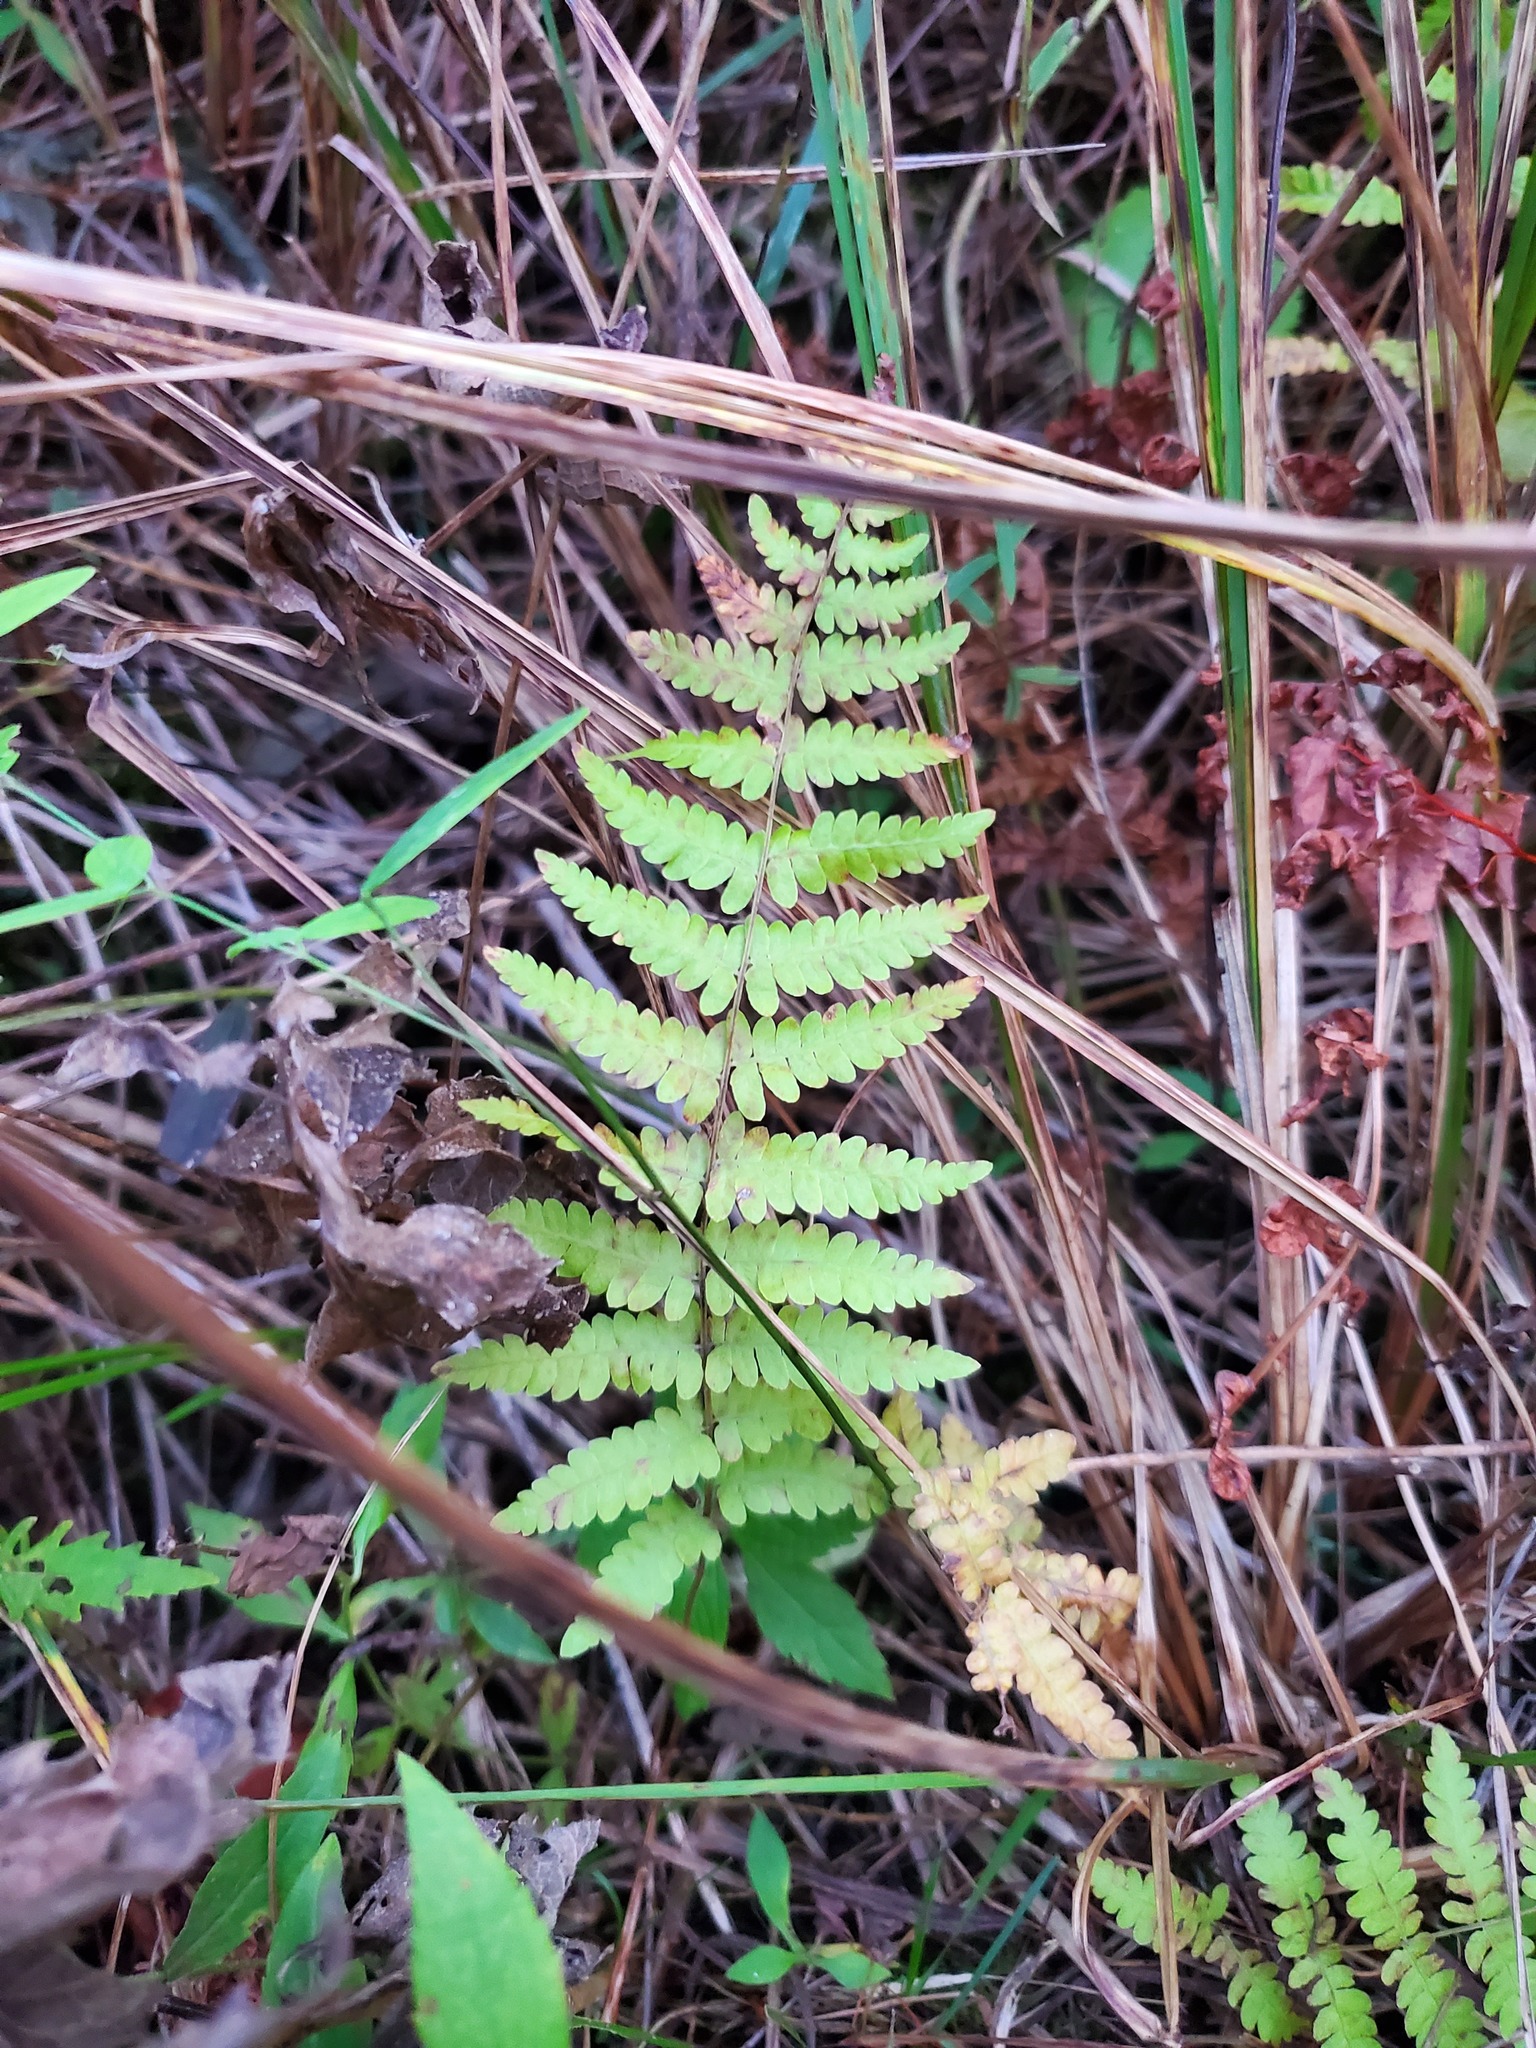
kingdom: Plantae
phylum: Tracheophyta
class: Polypodiopsida
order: Polypodiales
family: Thelypteridaceae
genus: Thelypteris
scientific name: Thelypteris palustris
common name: Marsh fern
